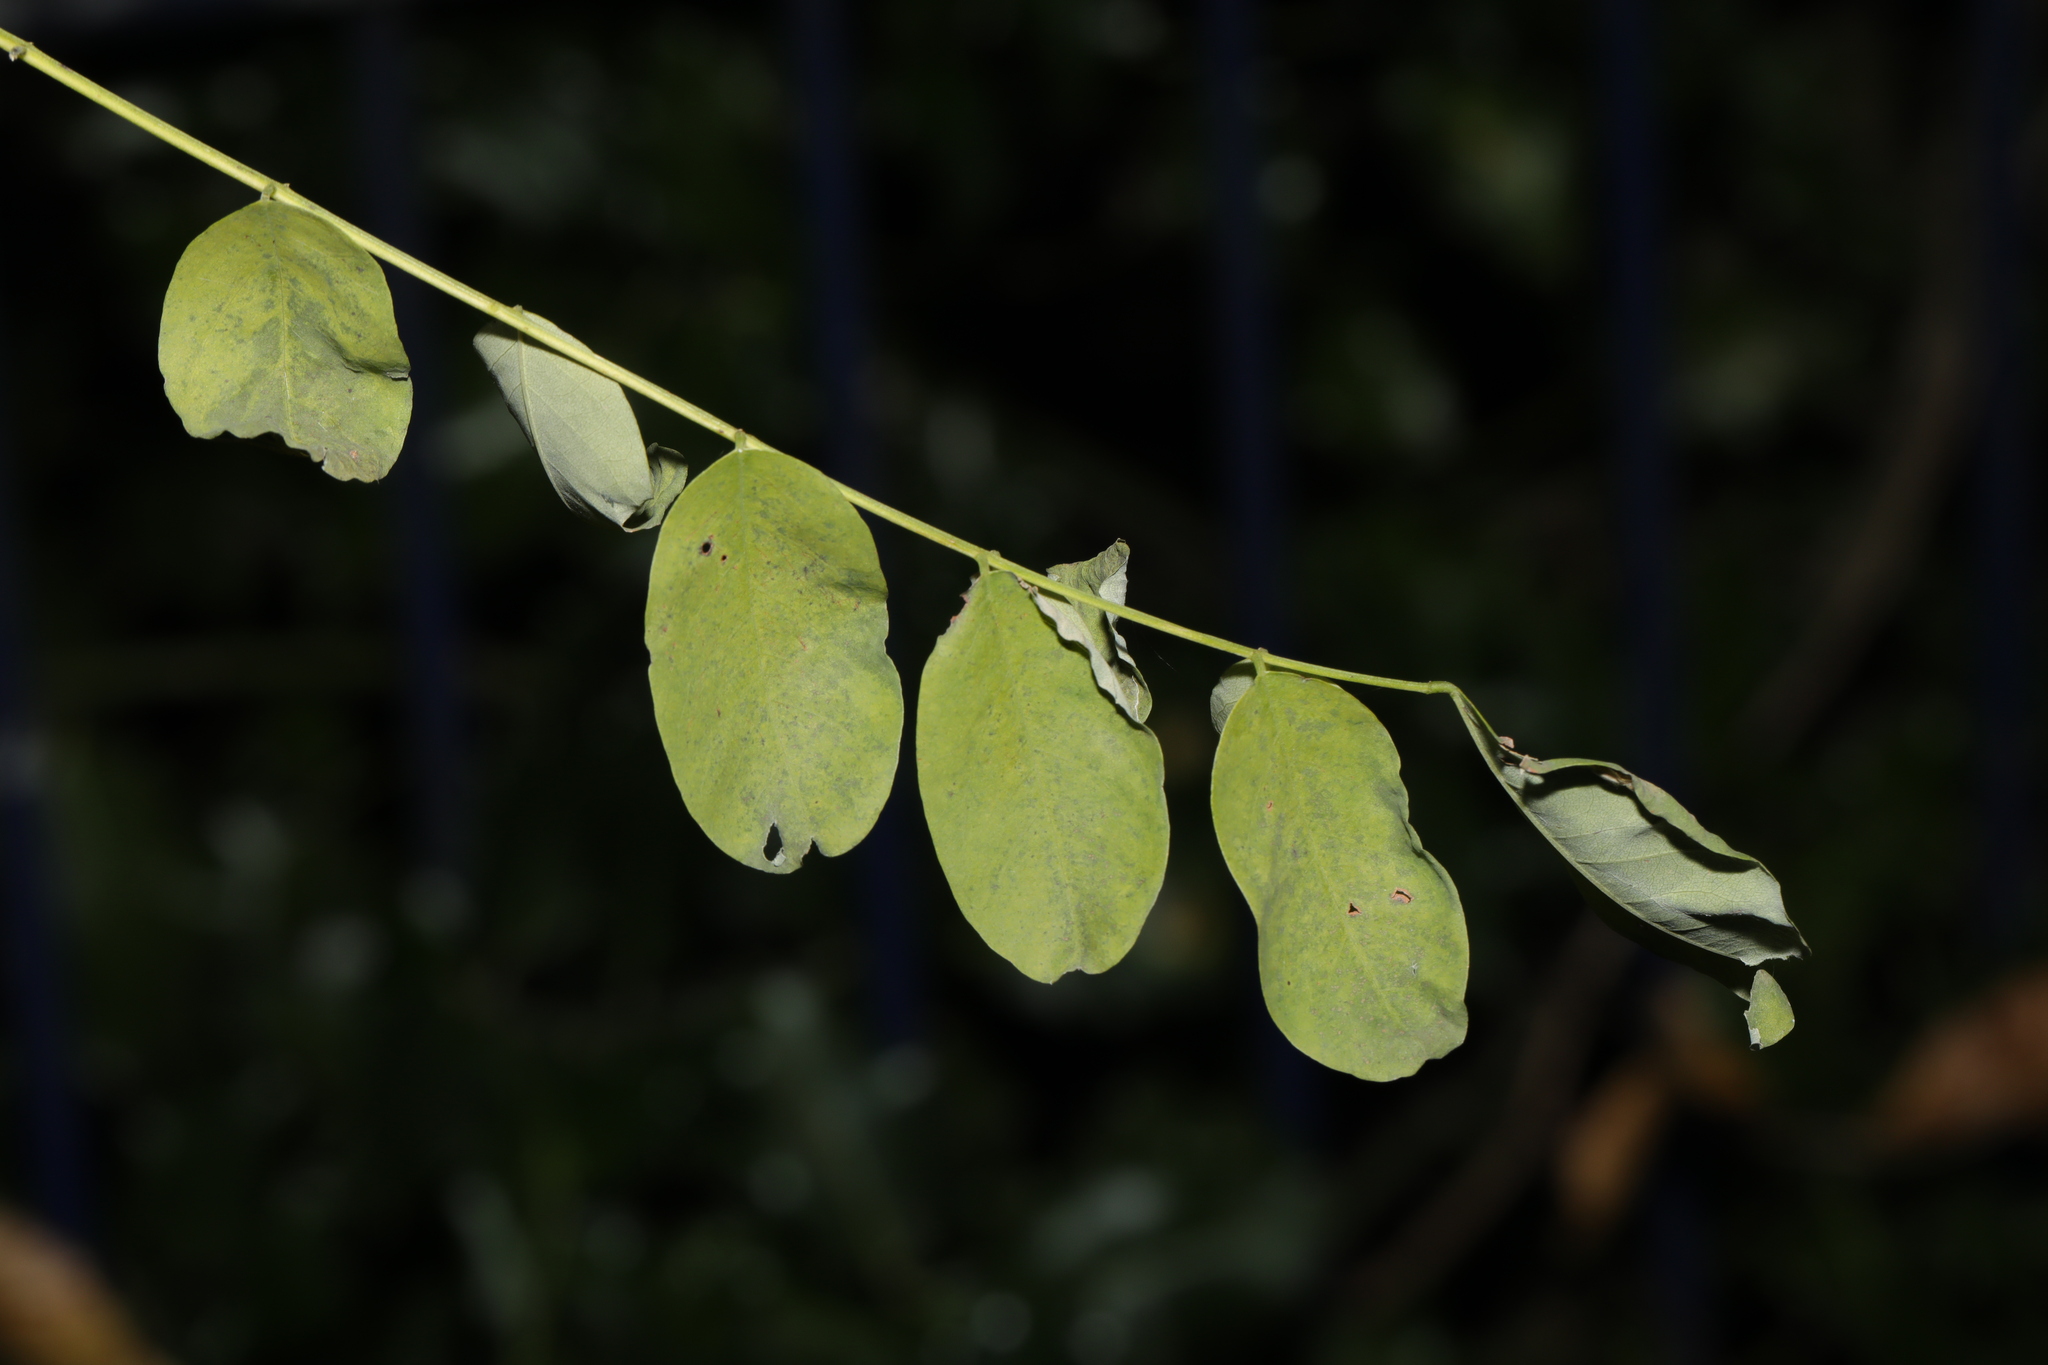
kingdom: Plantae
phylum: Tracheophyta
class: Magnoliopsida
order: Fabales
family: Fabaceae
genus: Robinia
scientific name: Robinia pseudoacacia
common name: Black locust
